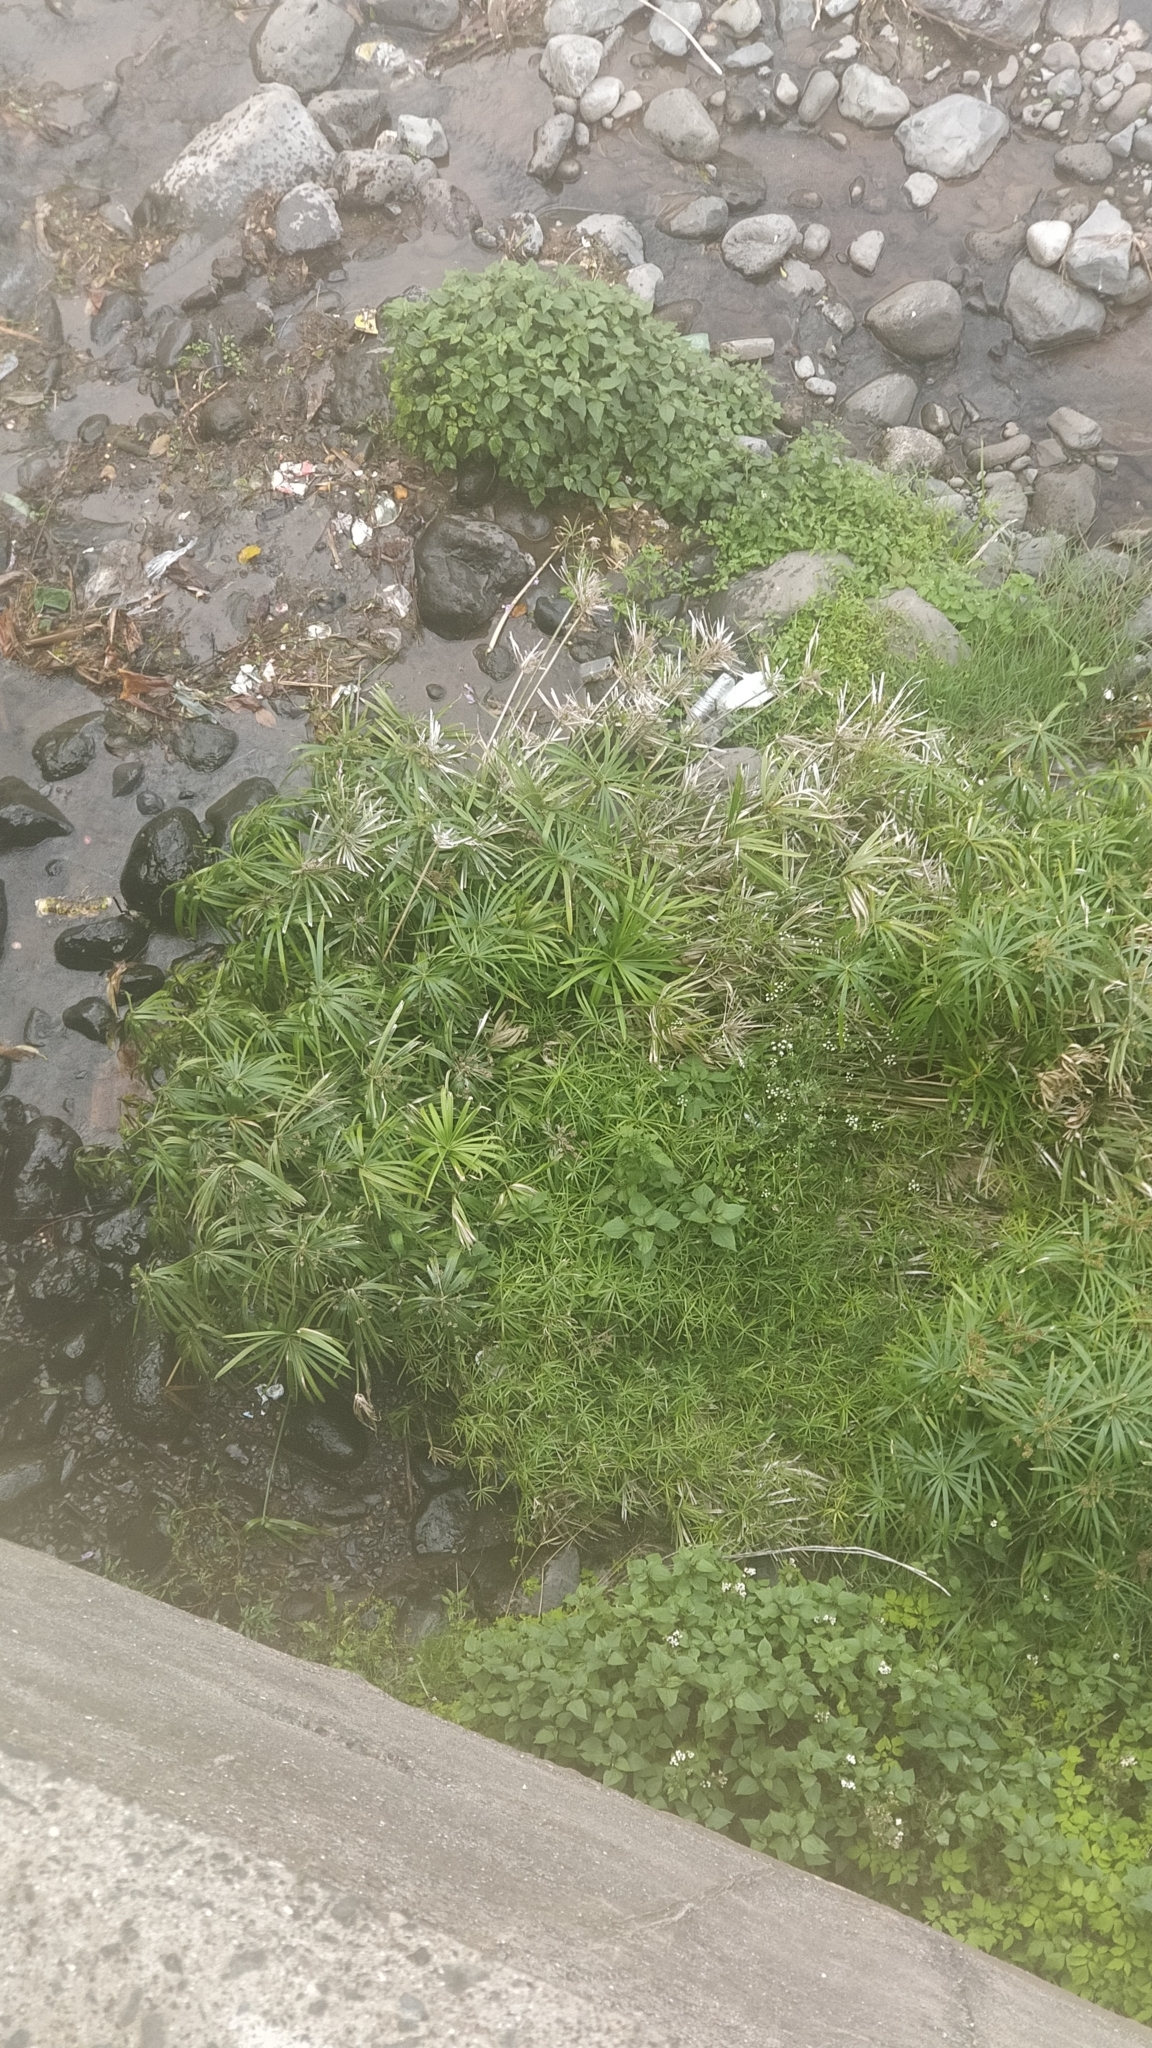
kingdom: Plantae
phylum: Tracheophyta
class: Liliopsida
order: Poales
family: Cyperaceae
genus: Cyperus
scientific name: Cyperus alternifolius
